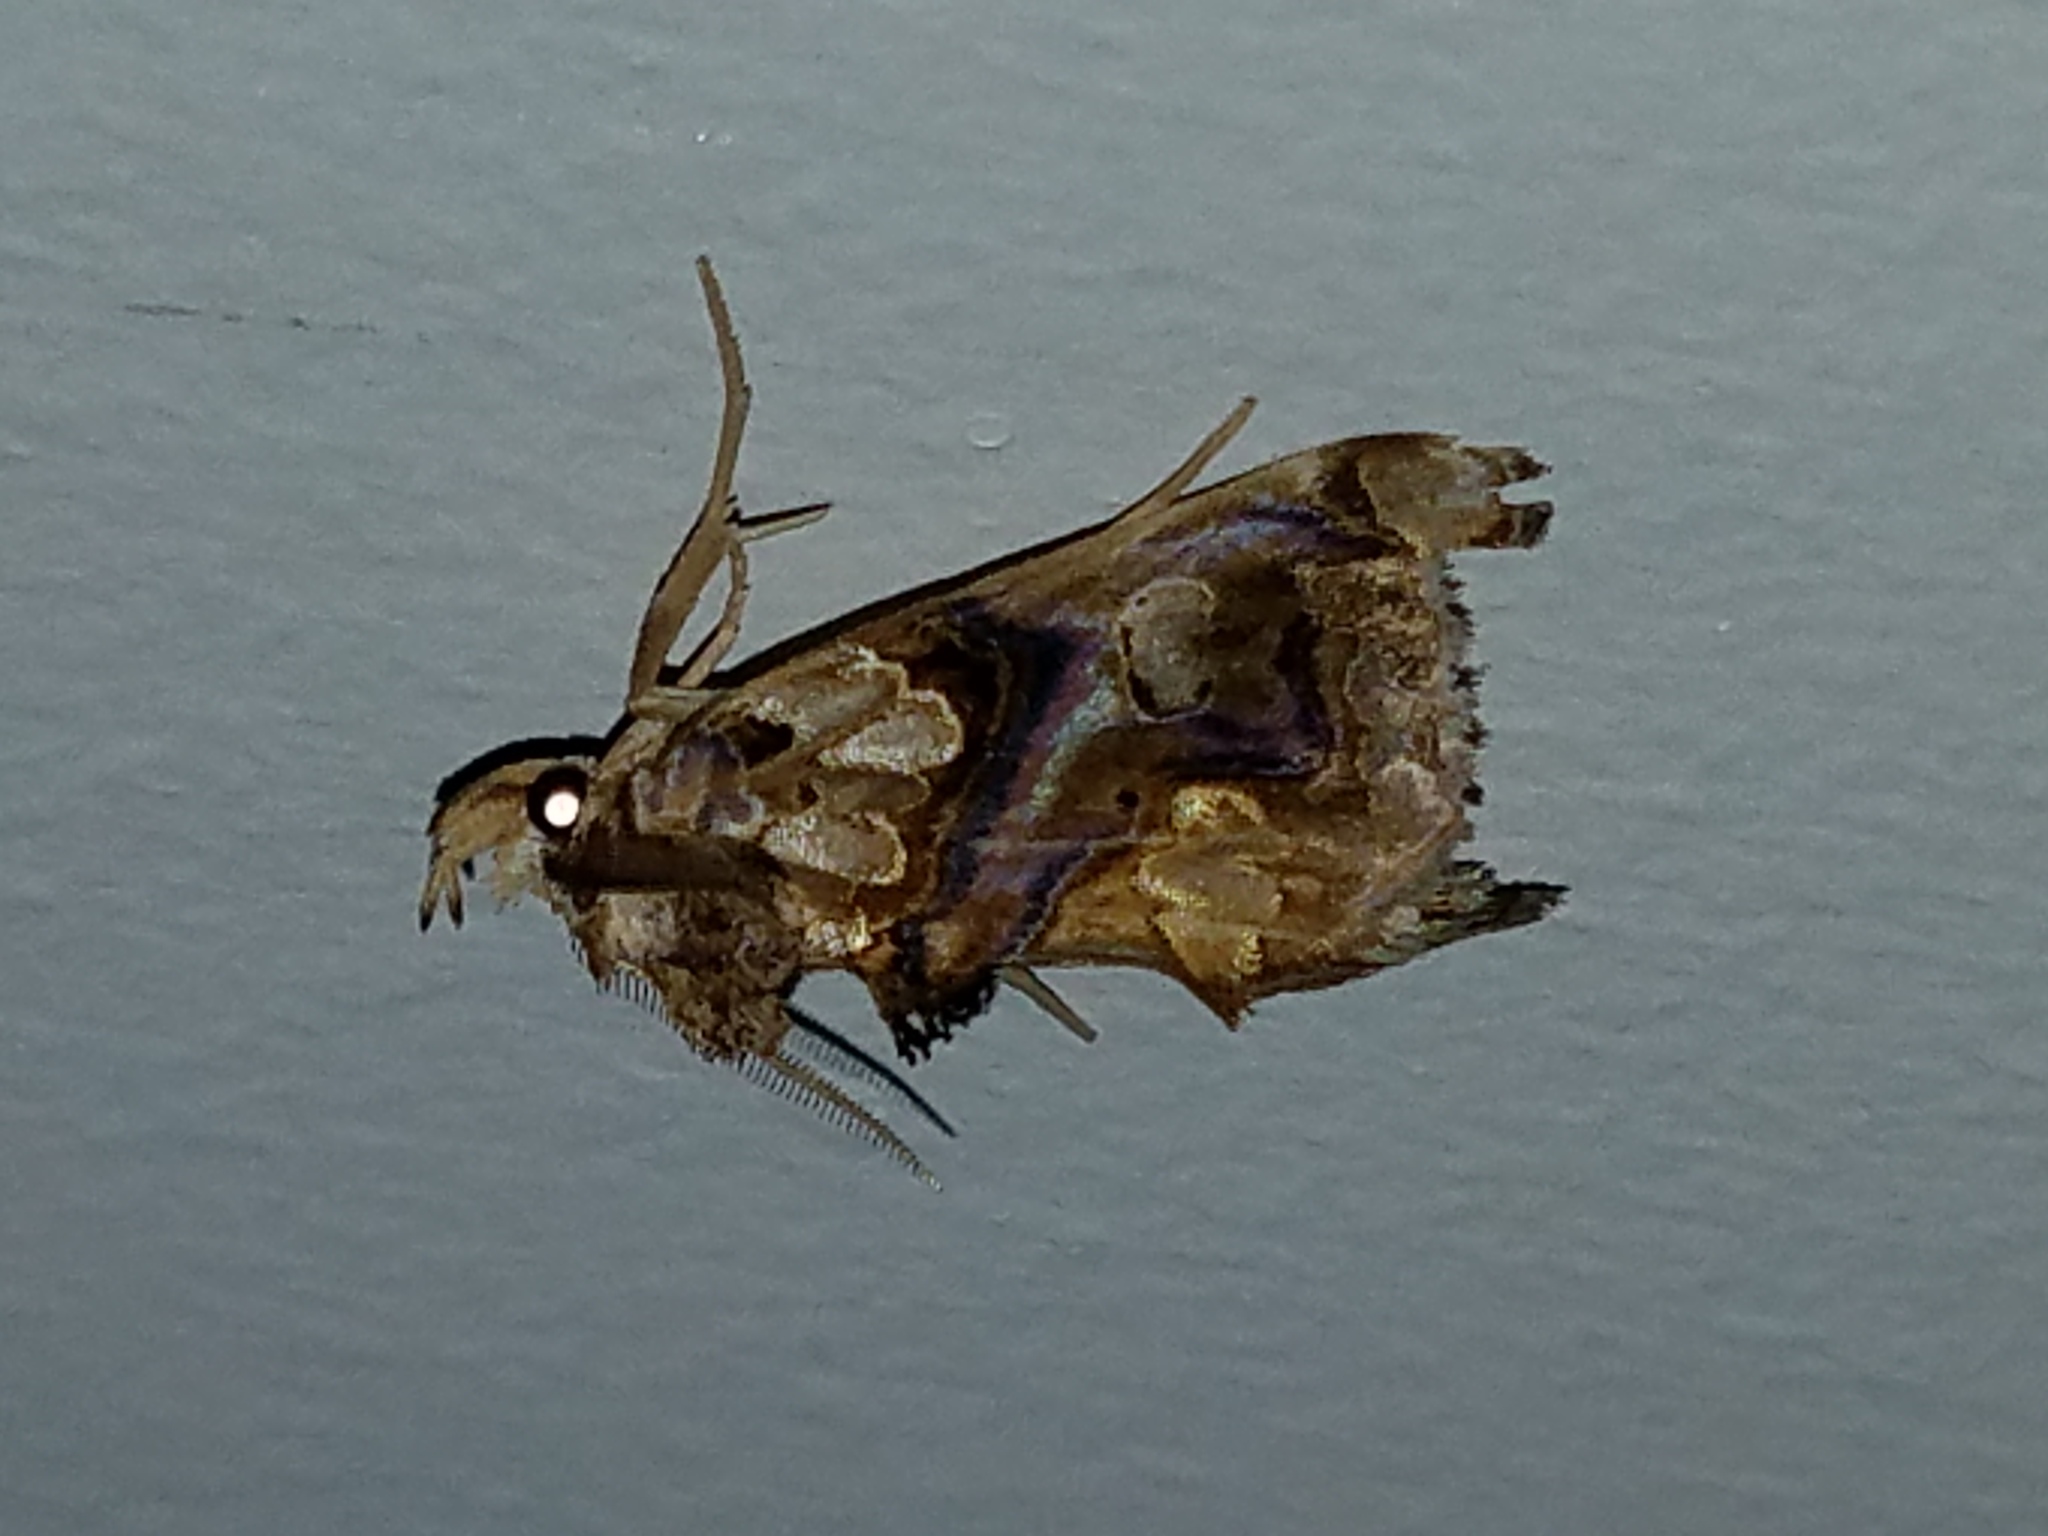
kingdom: Animalia
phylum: Arthropoda
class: Insecta
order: Lepidoptera
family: Erebidae
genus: Plusiodonta
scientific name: Plusiodonta compressipalpis
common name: Moonseed moth
